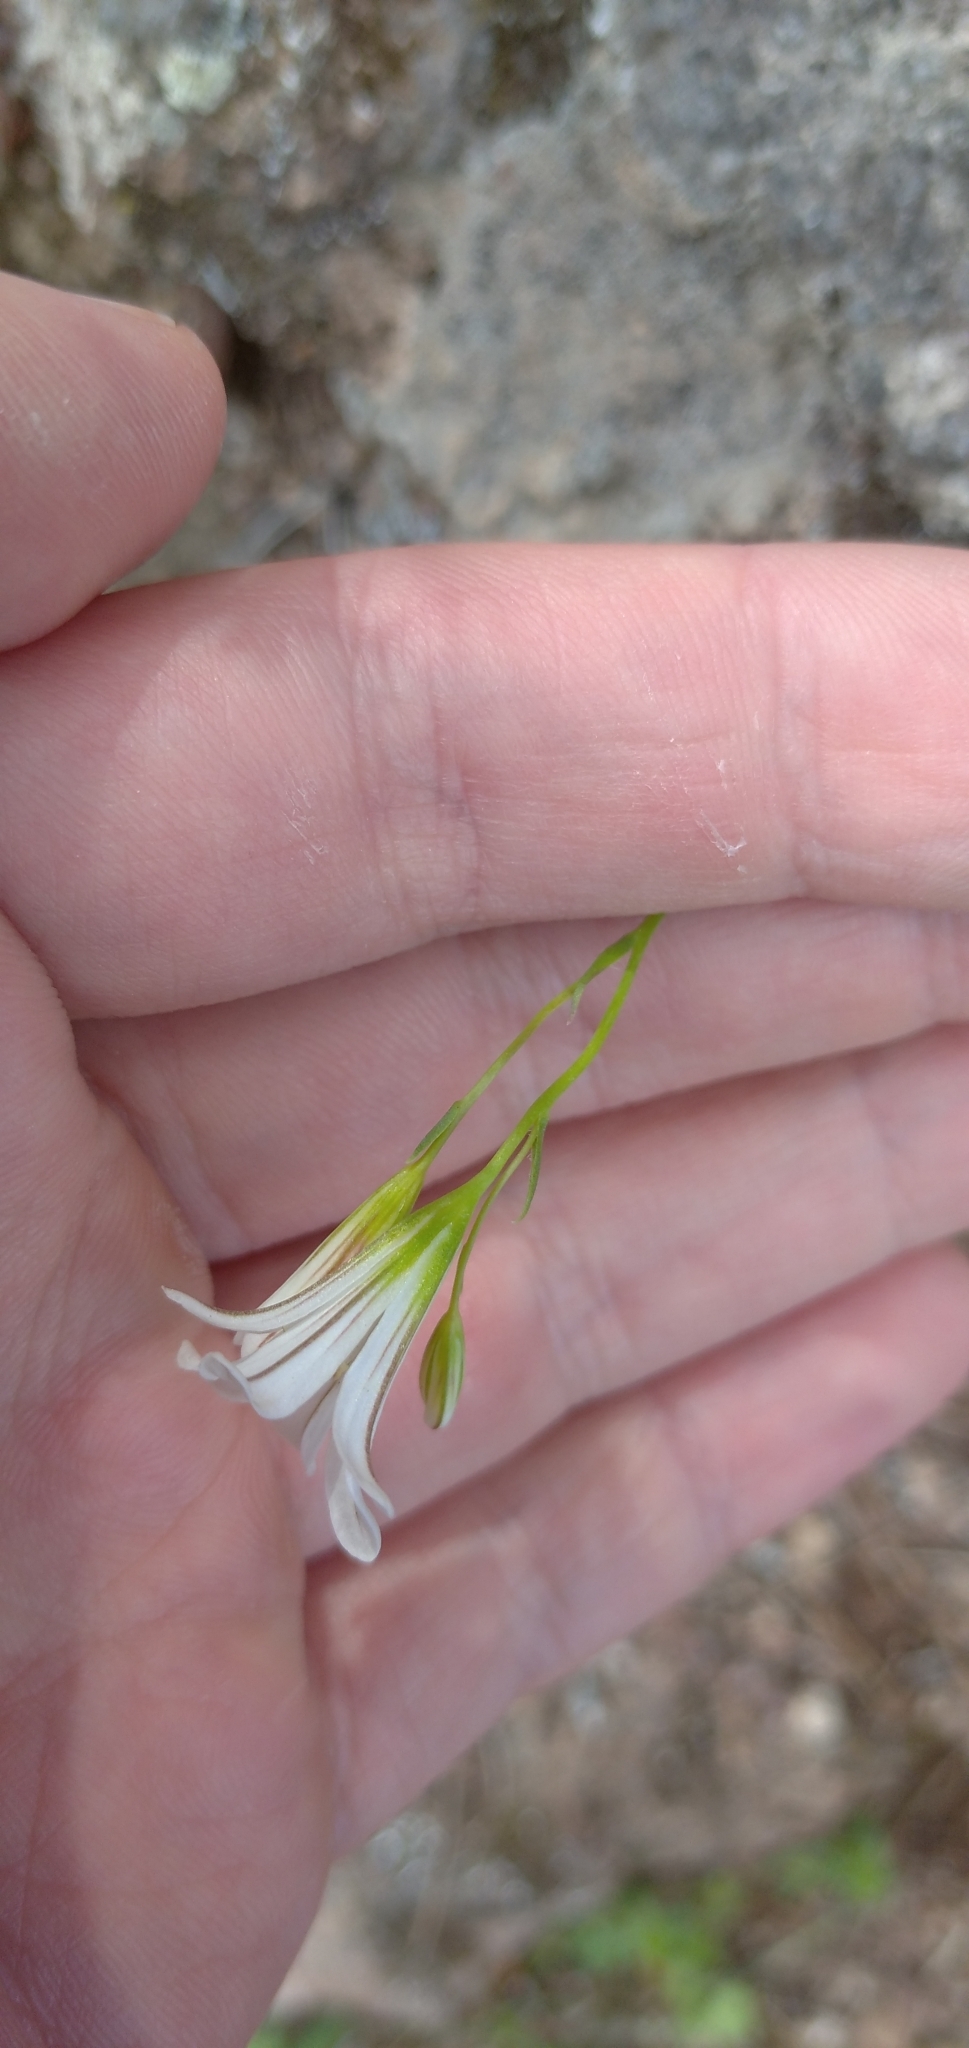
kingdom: Plantae
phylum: Tracheophyta
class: Liliopsida
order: Liliales
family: Liliaceae
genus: Gagea
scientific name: Gagea graeca
